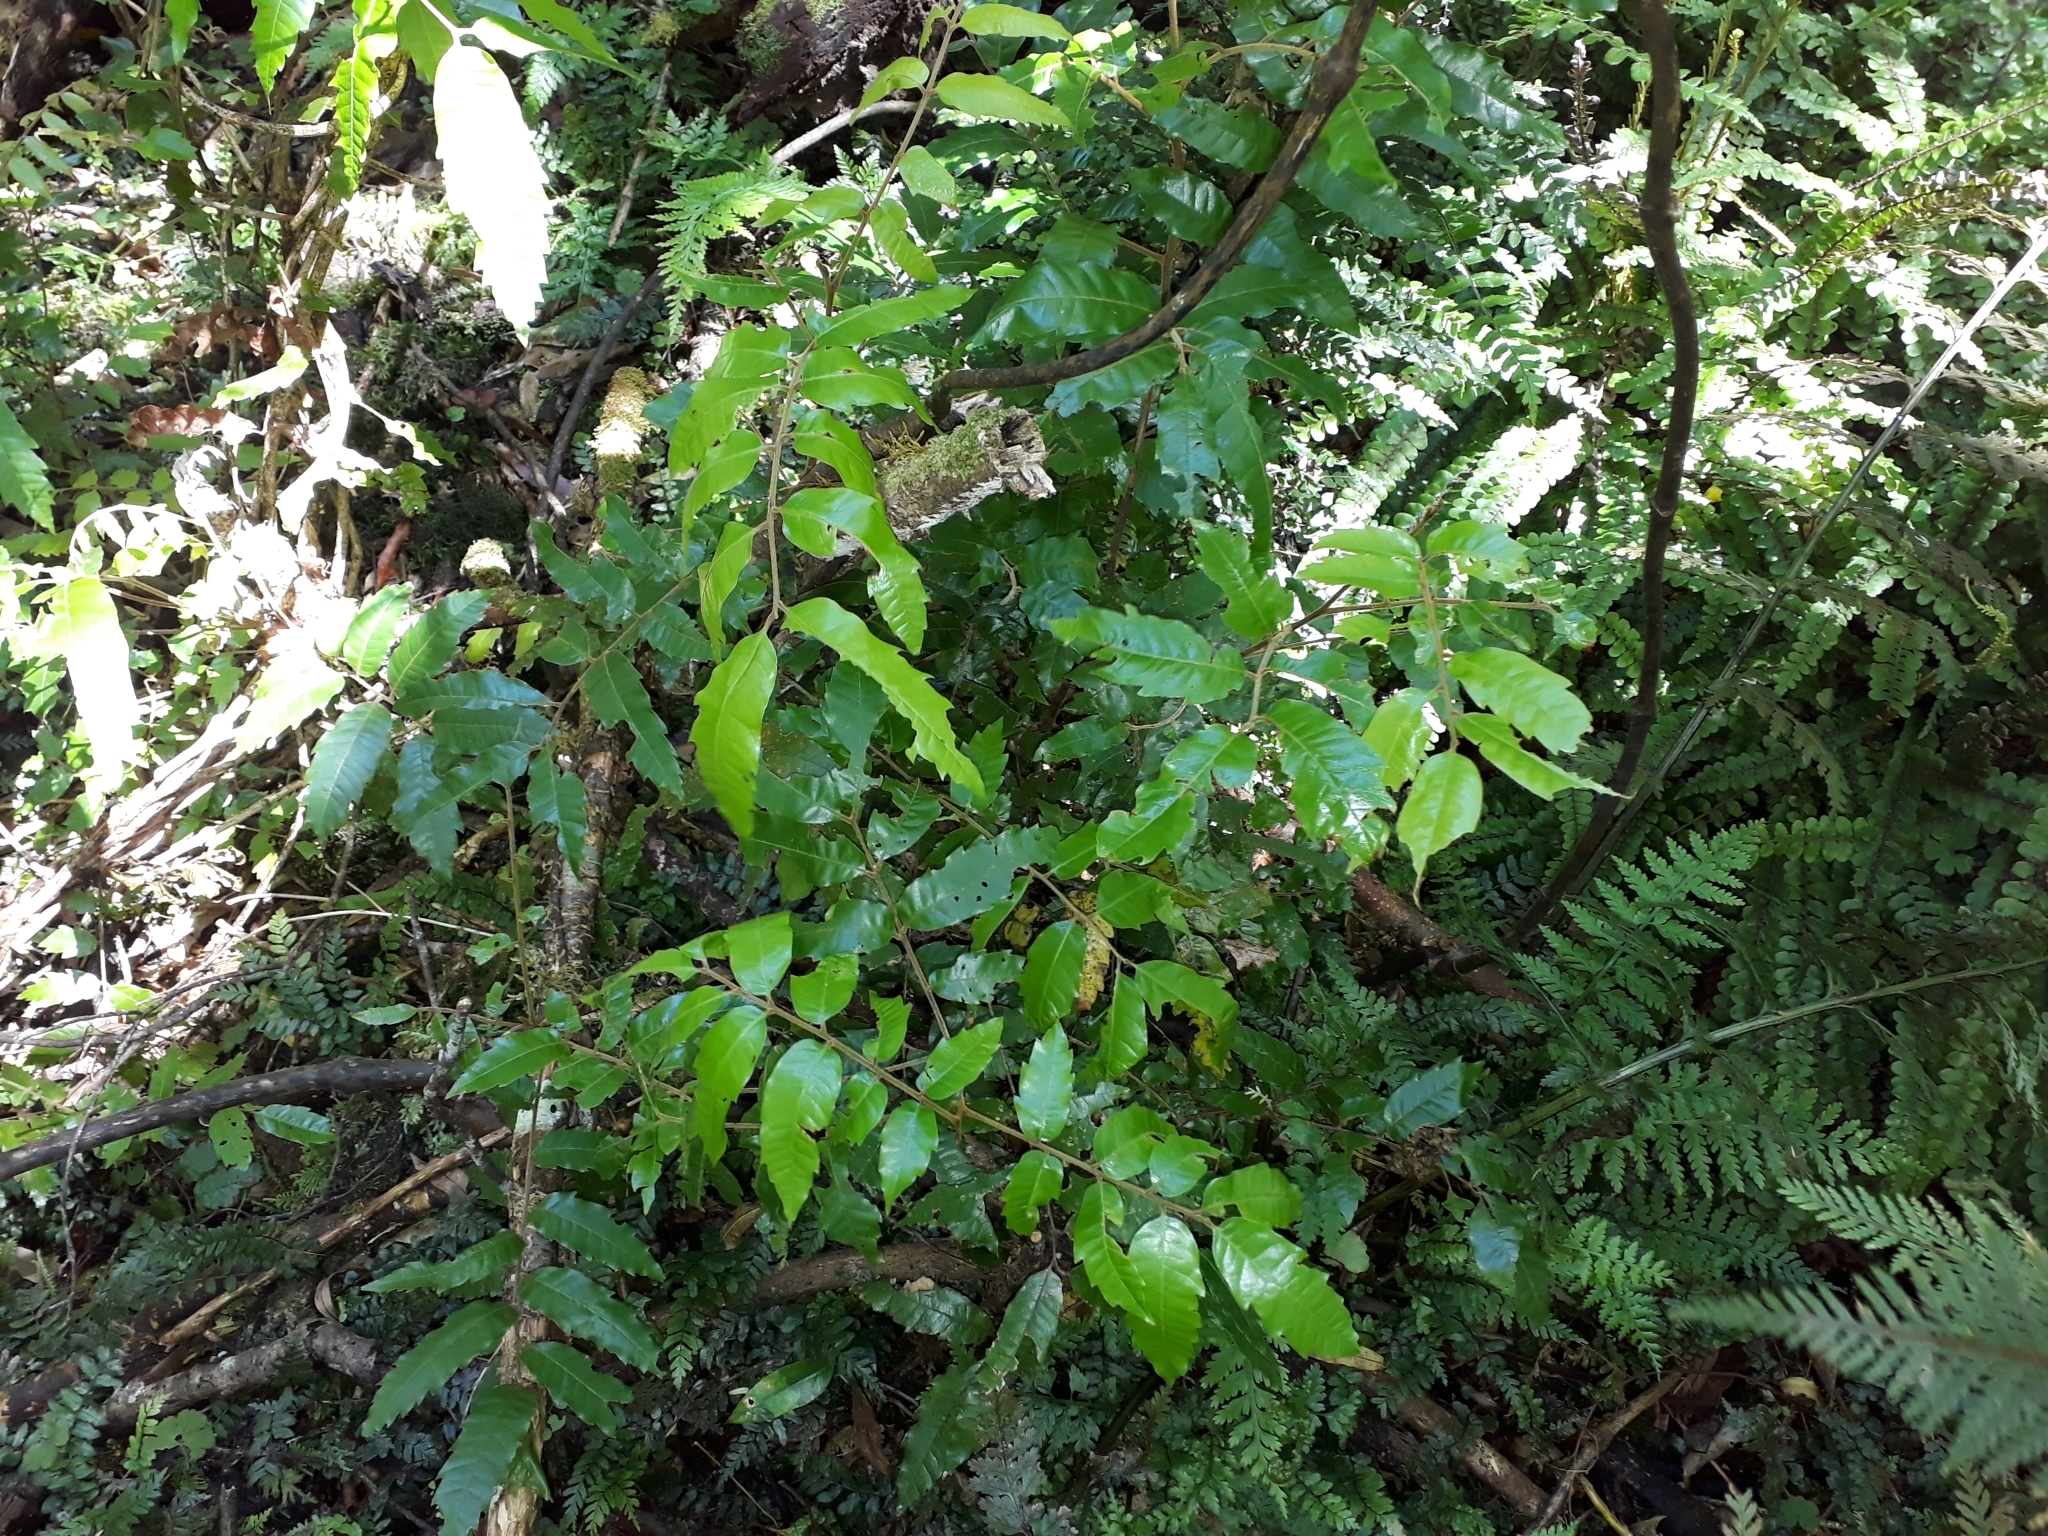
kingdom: Plantae
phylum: Tracheophyta
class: Magnoliopsida
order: Sapindales
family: Sapindaceae
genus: Alectryon
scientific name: Alectryon excelsus
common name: Three kings titoki
